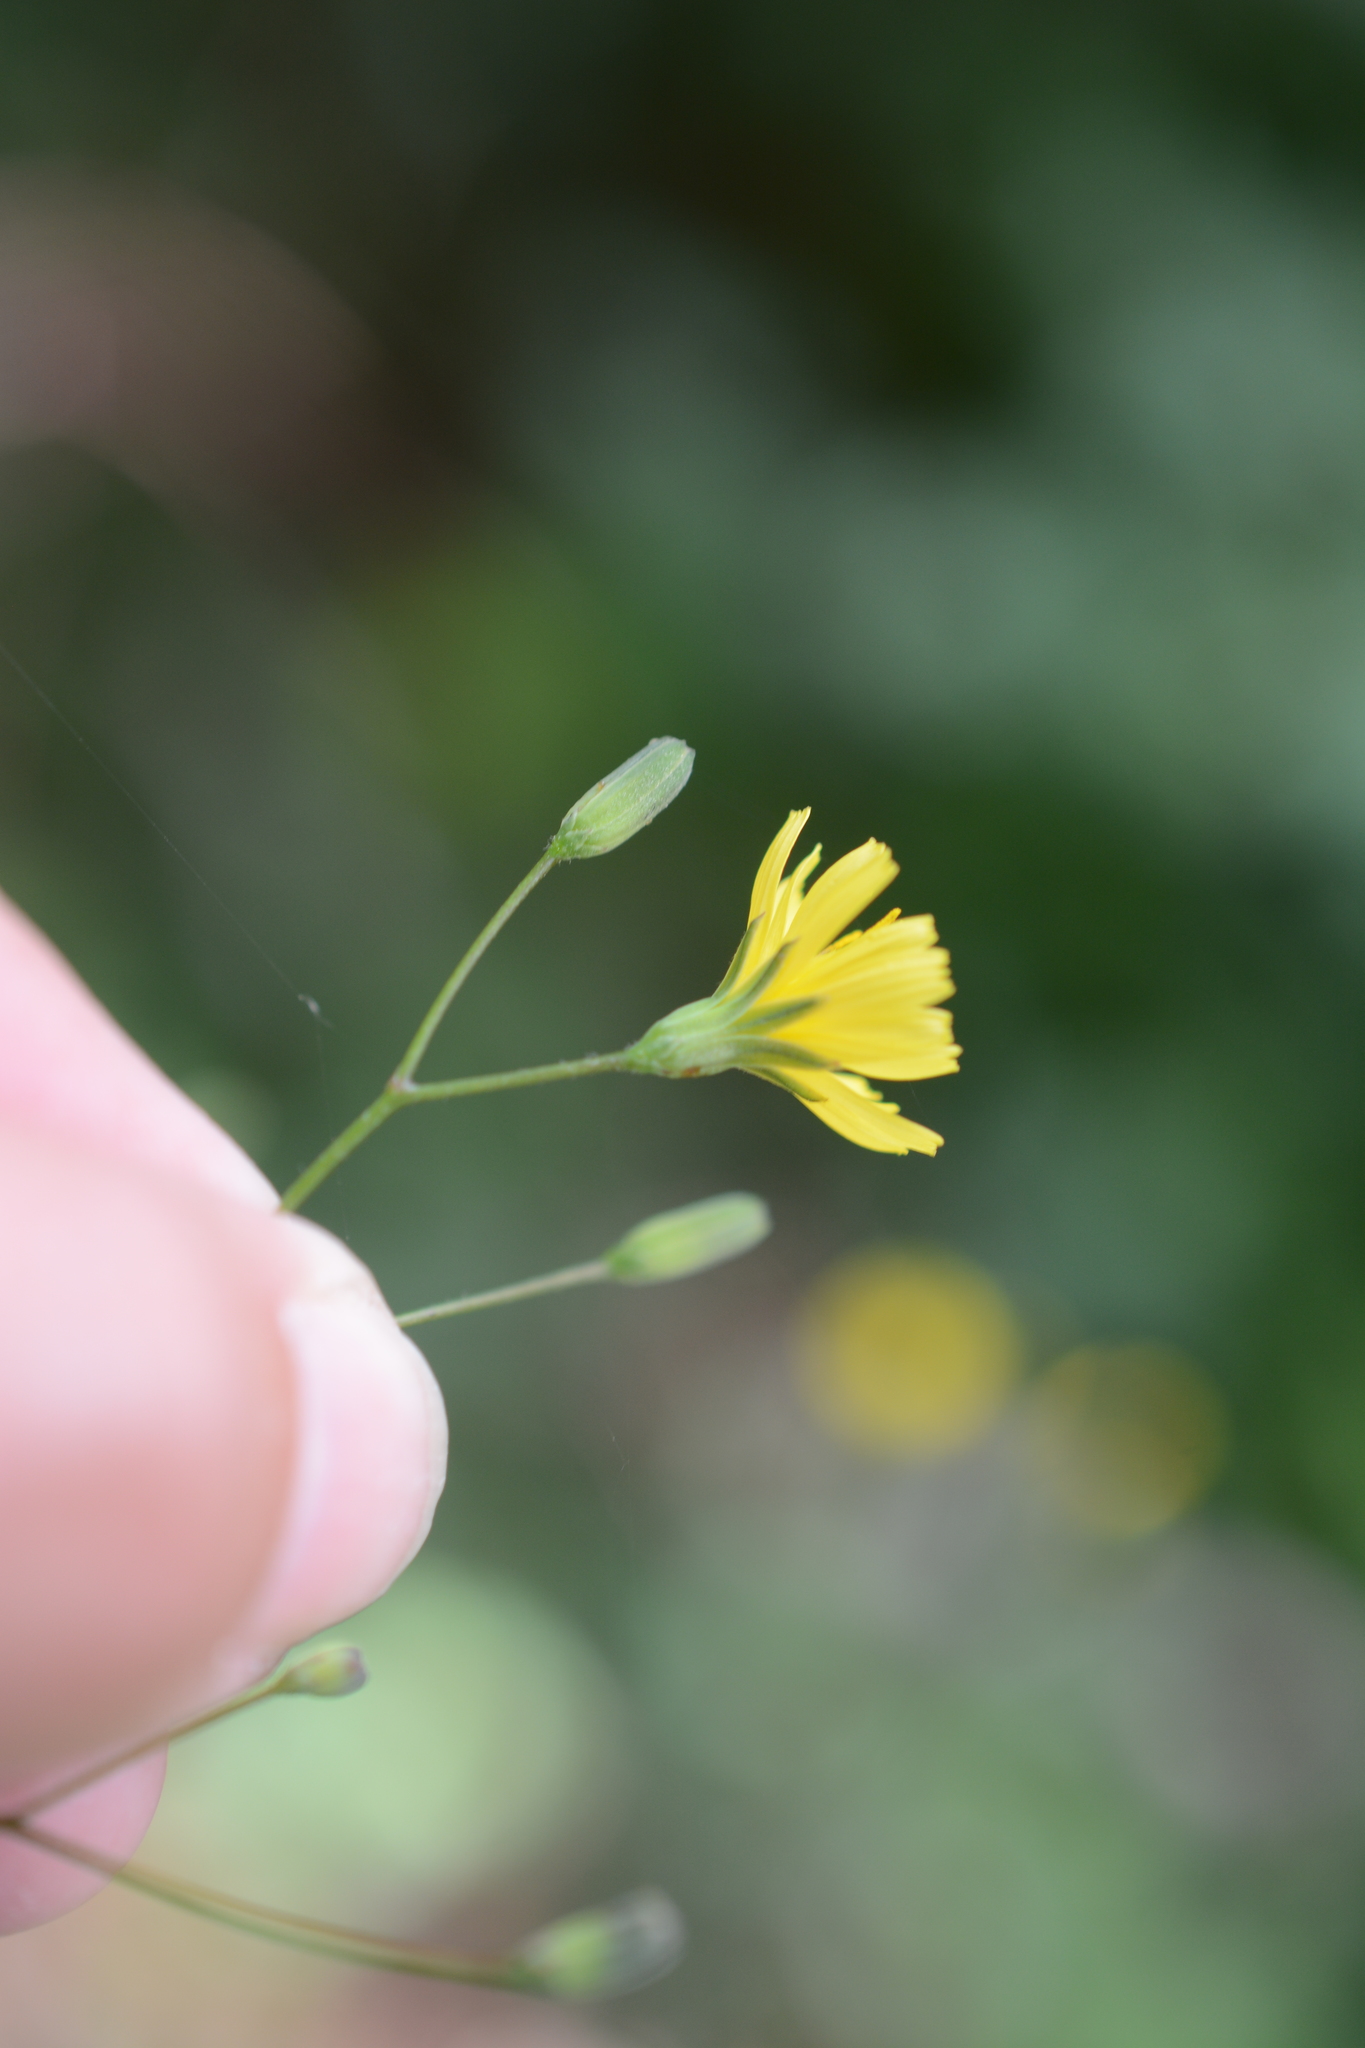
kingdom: Plantae
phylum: Tracheophyta
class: Magnoliopsida
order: Asterales
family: Asteraceae
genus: Lapsana
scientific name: Lapsana communis
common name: Nipplewort
